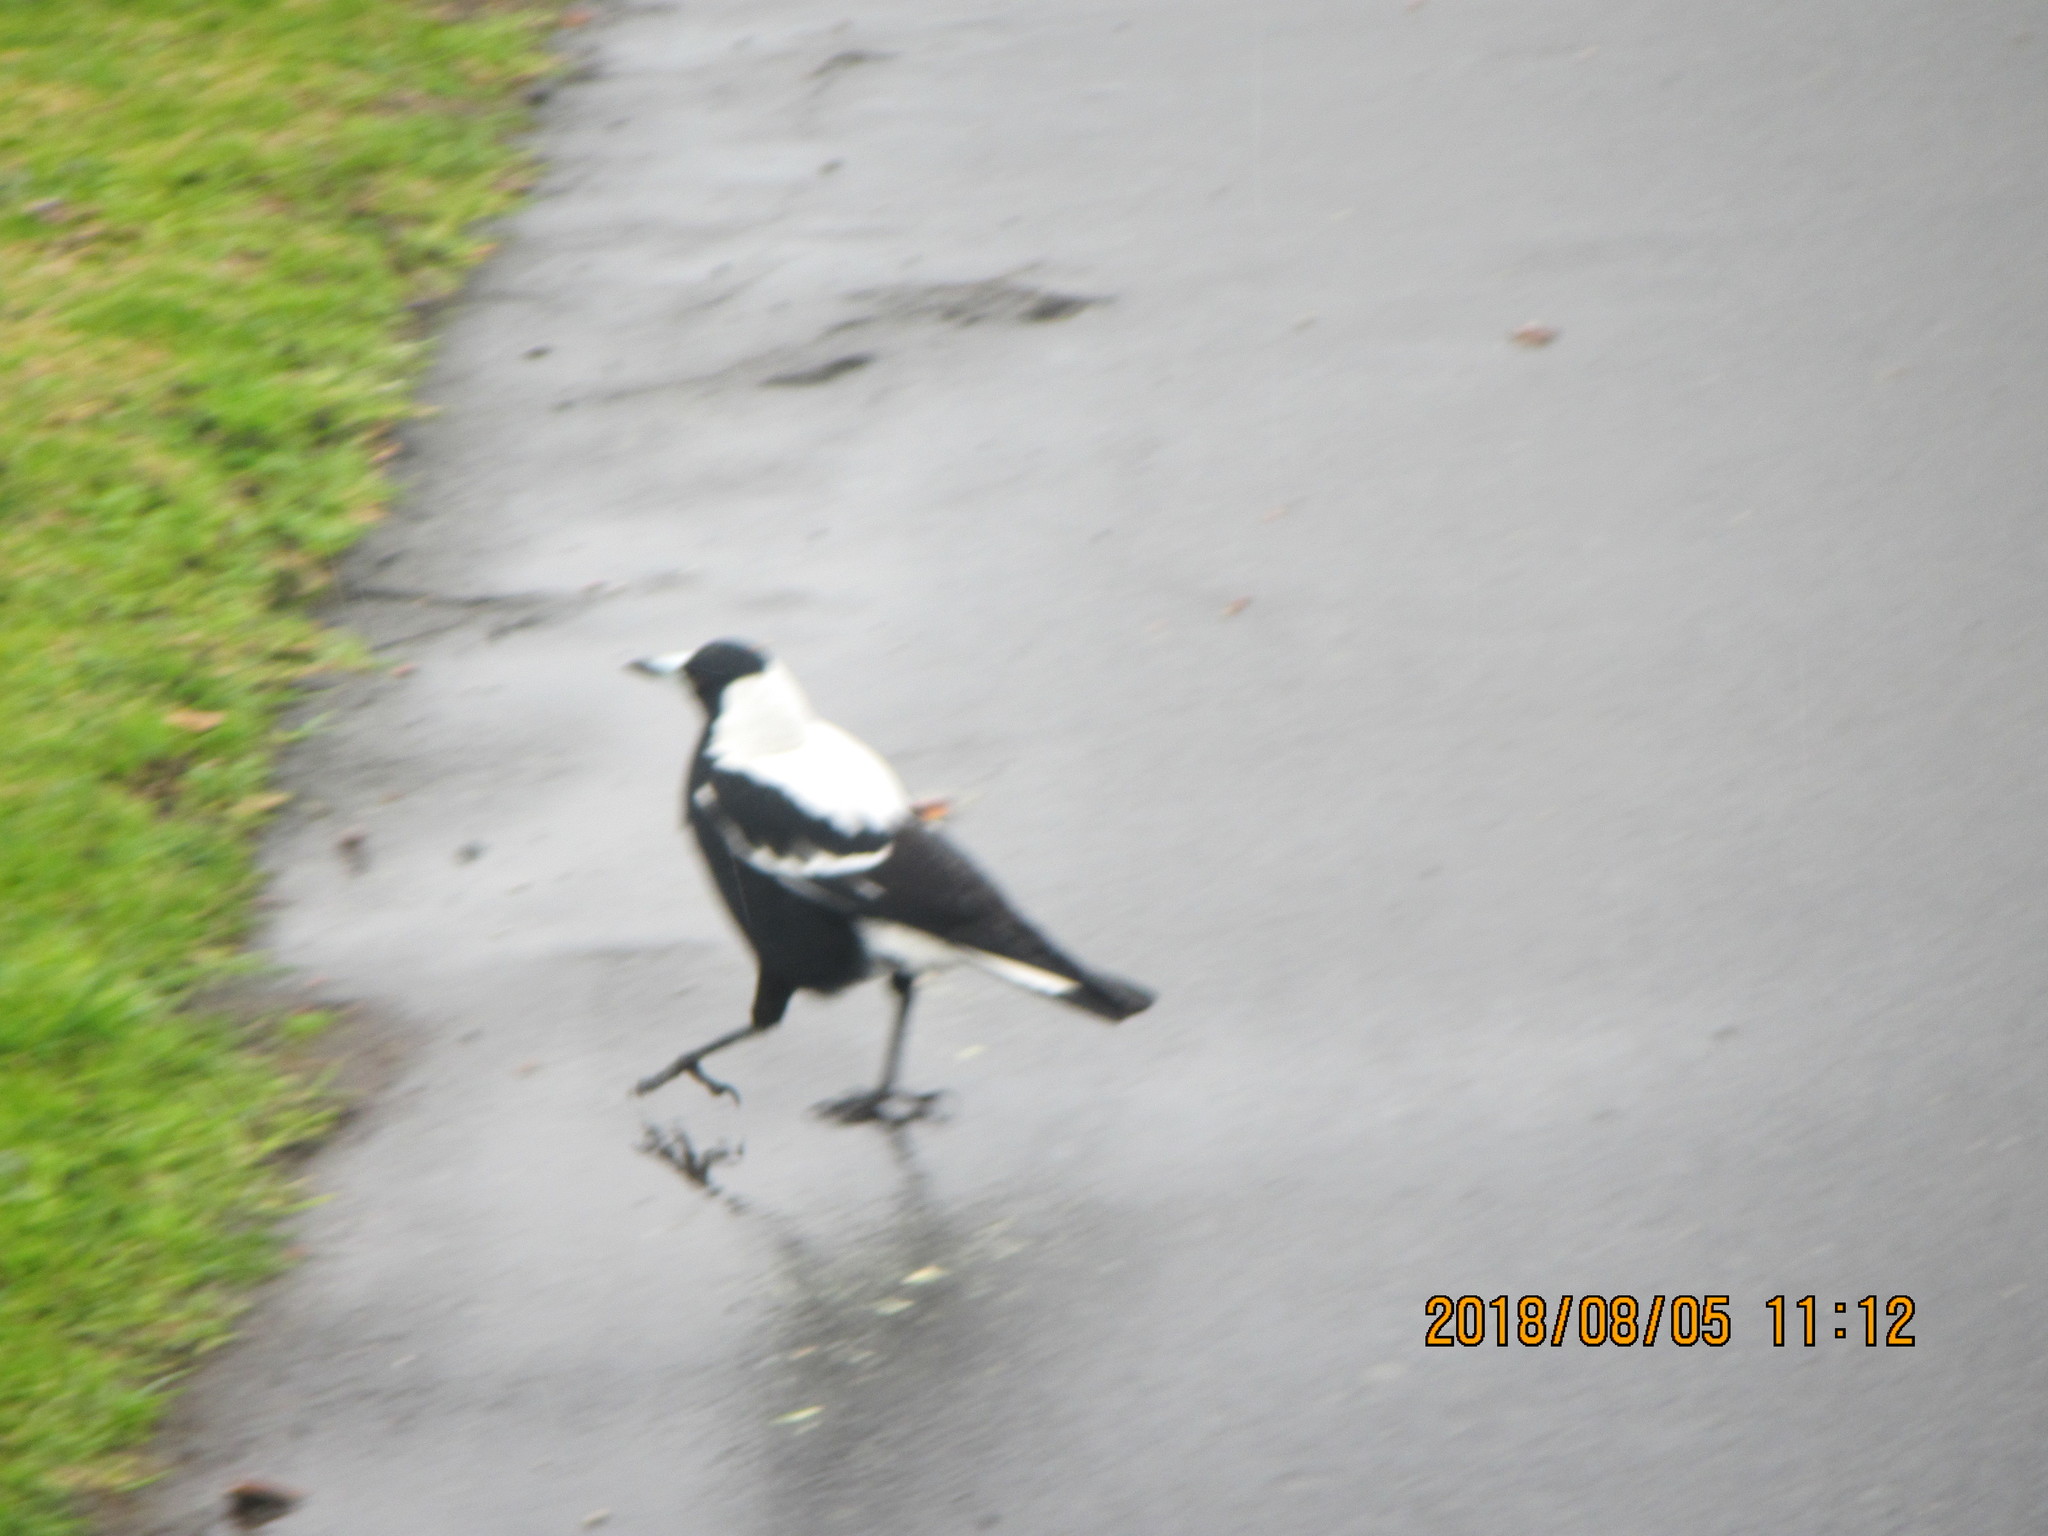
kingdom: Animalia
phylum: Chordata
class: Aves
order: Passeriformes
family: Cracticidae
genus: Gymnorhina
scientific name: Gymnorhina tibicen
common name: Australian magpie
